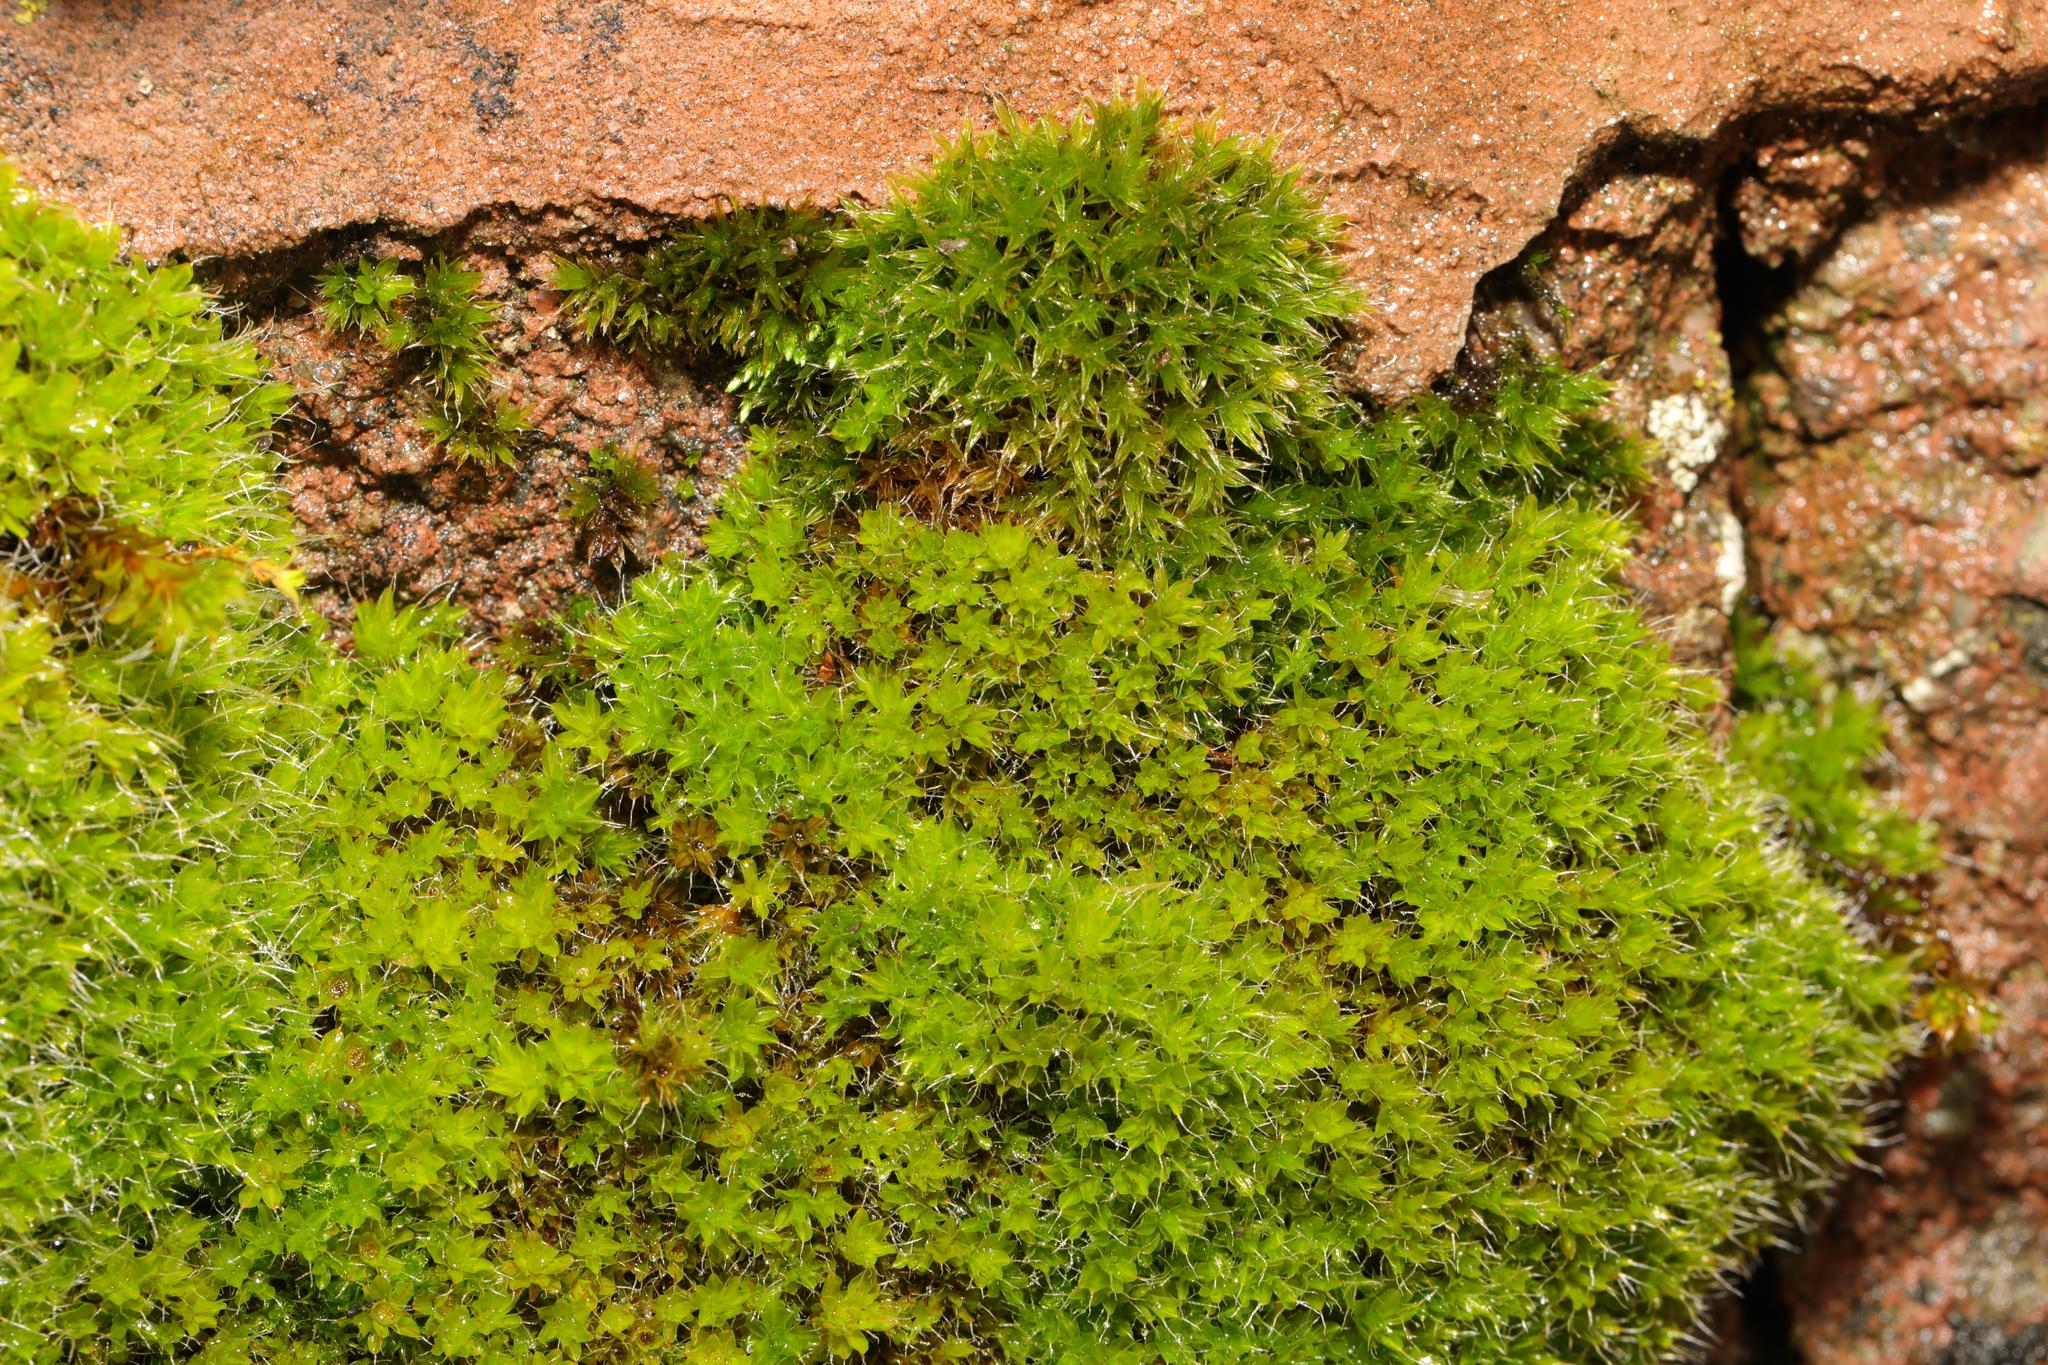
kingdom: Plantae
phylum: Bryophyta
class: Bryopsida
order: Pottiales
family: Pottiaceae
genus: Syntrichia
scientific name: Syntrichia montana
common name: Intermediate screw-moss
